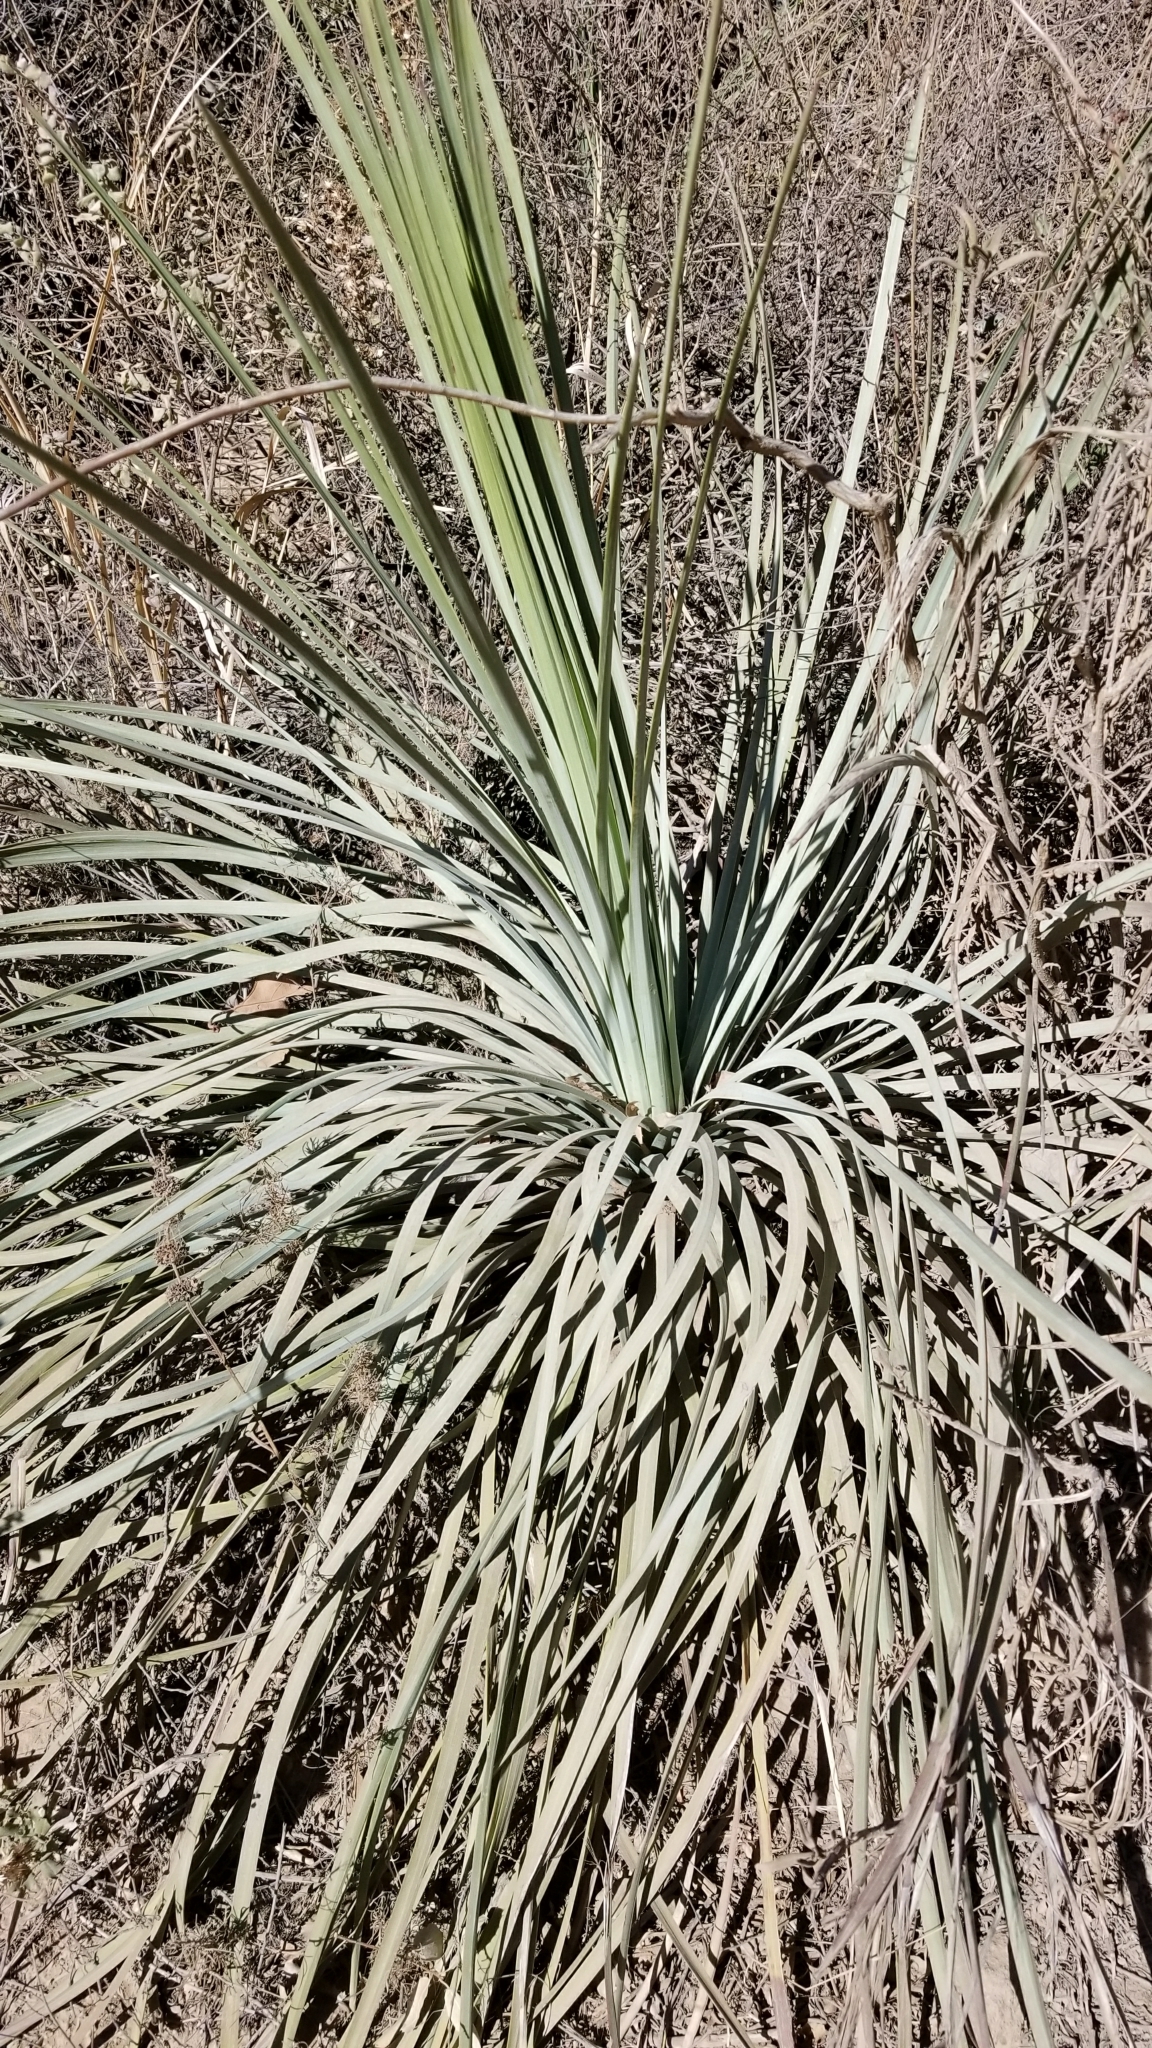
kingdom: Plantae
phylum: Tracheophyta
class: Liliopsida
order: Asparagales
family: Asparagaceae
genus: Hesperoyucca
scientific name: Hesperoyucca whipplei
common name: Our lord's-candle
